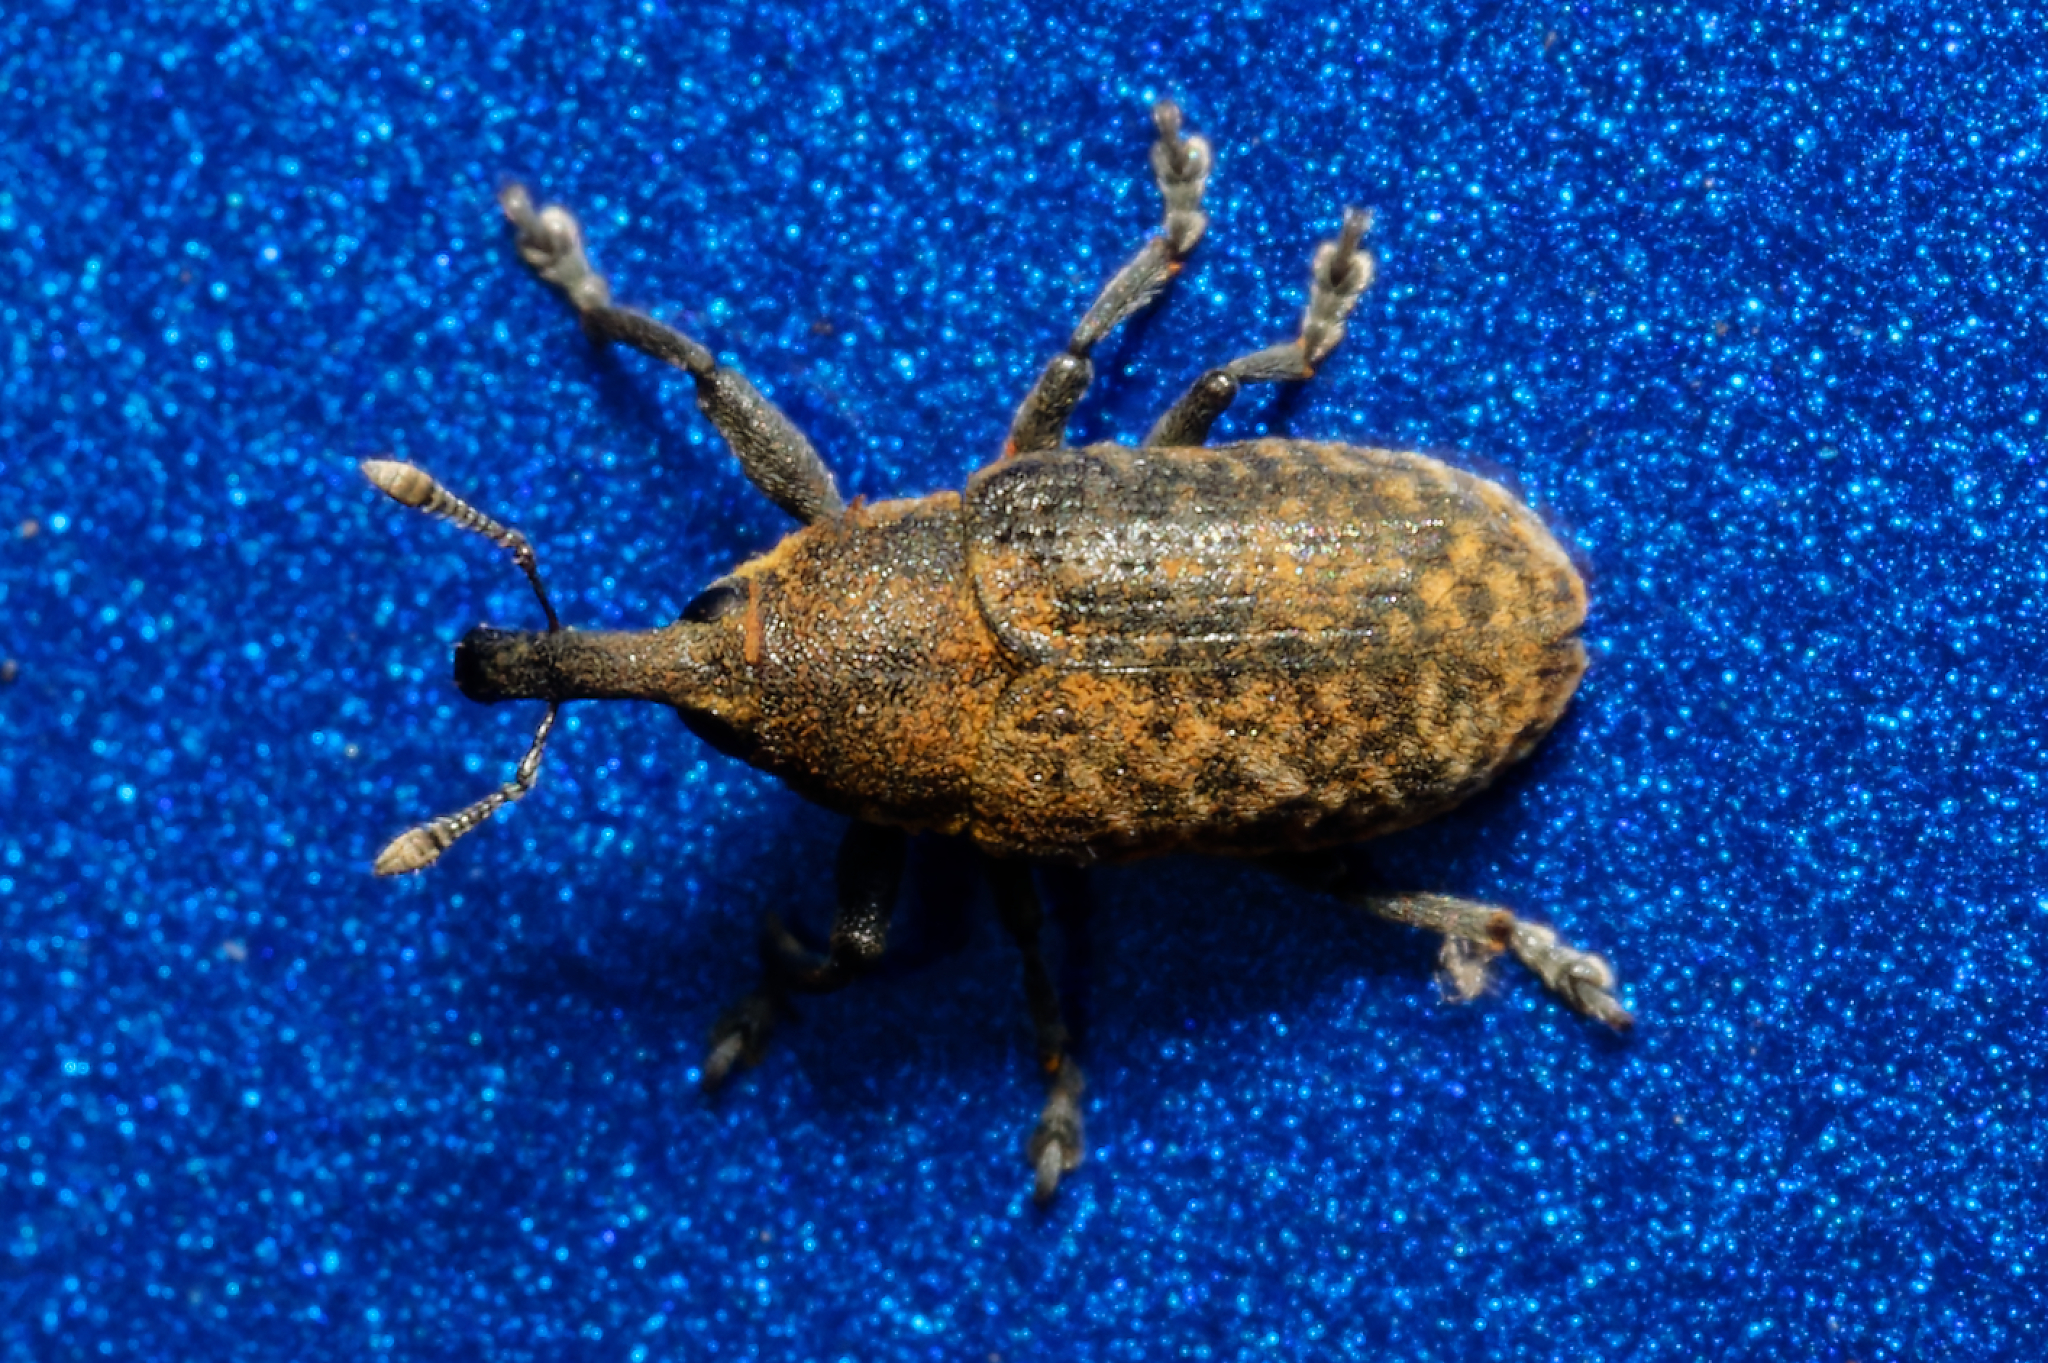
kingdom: Animalia
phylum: Arthropoda
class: Insecta
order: Coleoptera
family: Curculionidae
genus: Larinus
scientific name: Larinus carlinae
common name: Weevil
